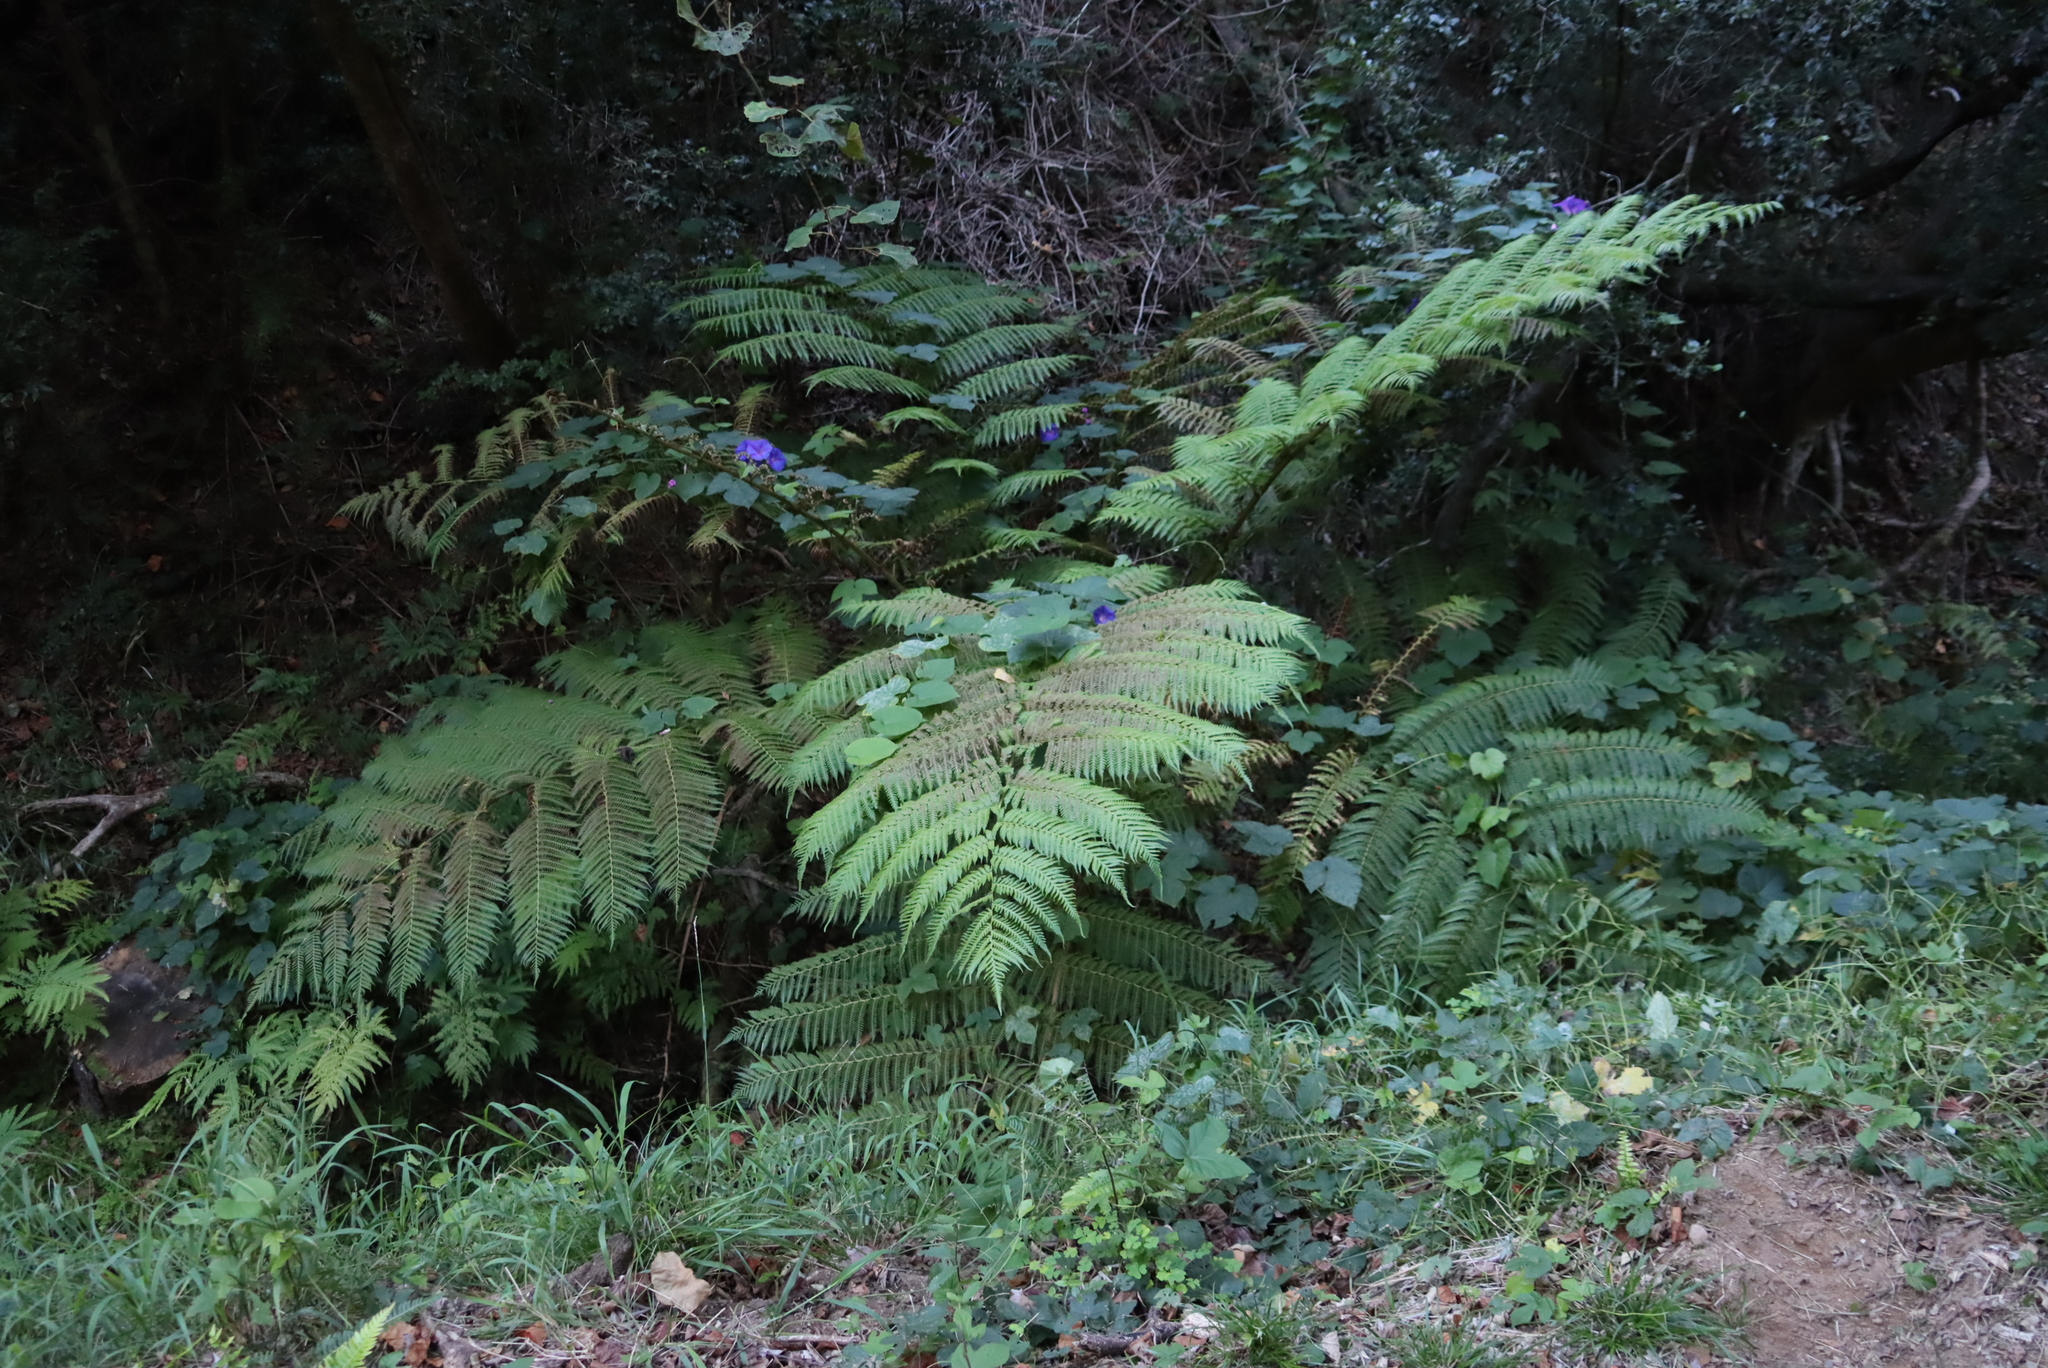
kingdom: Plantae
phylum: Tracheophyta
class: Polypodiopsida
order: Cyatheales
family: Cyatheaceae
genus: Sphaeropteris
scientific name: Sphaeropteris cooperi
